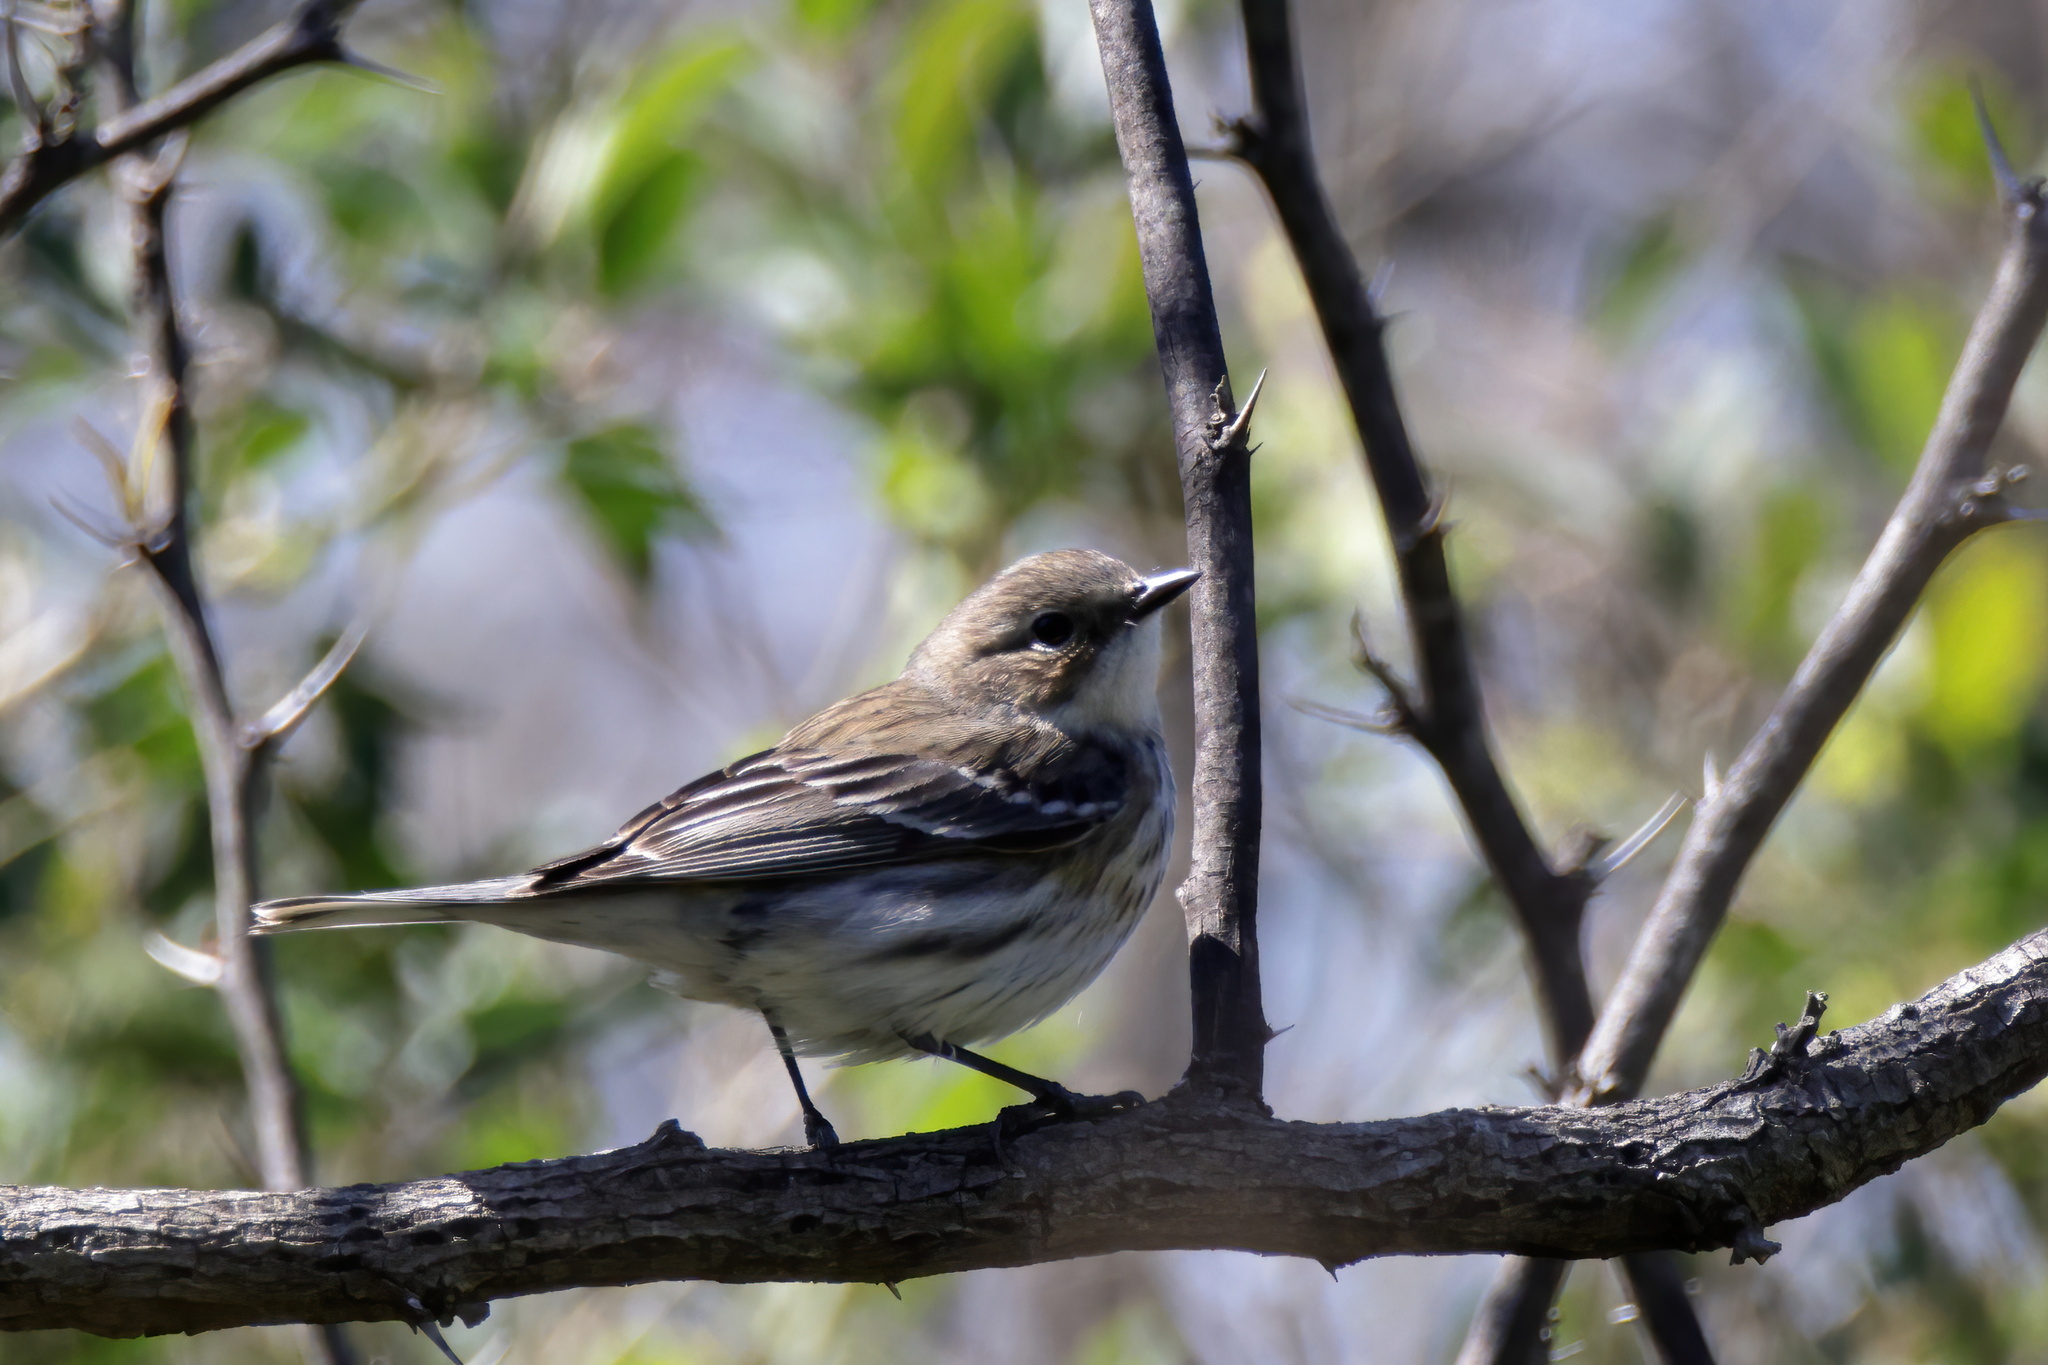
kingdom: Animalia
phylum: Chordata
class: Aves
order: Passeriformes
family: Parulidae
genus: Setophaga
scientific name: Setophaga coronata
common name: Myrtle warbler
